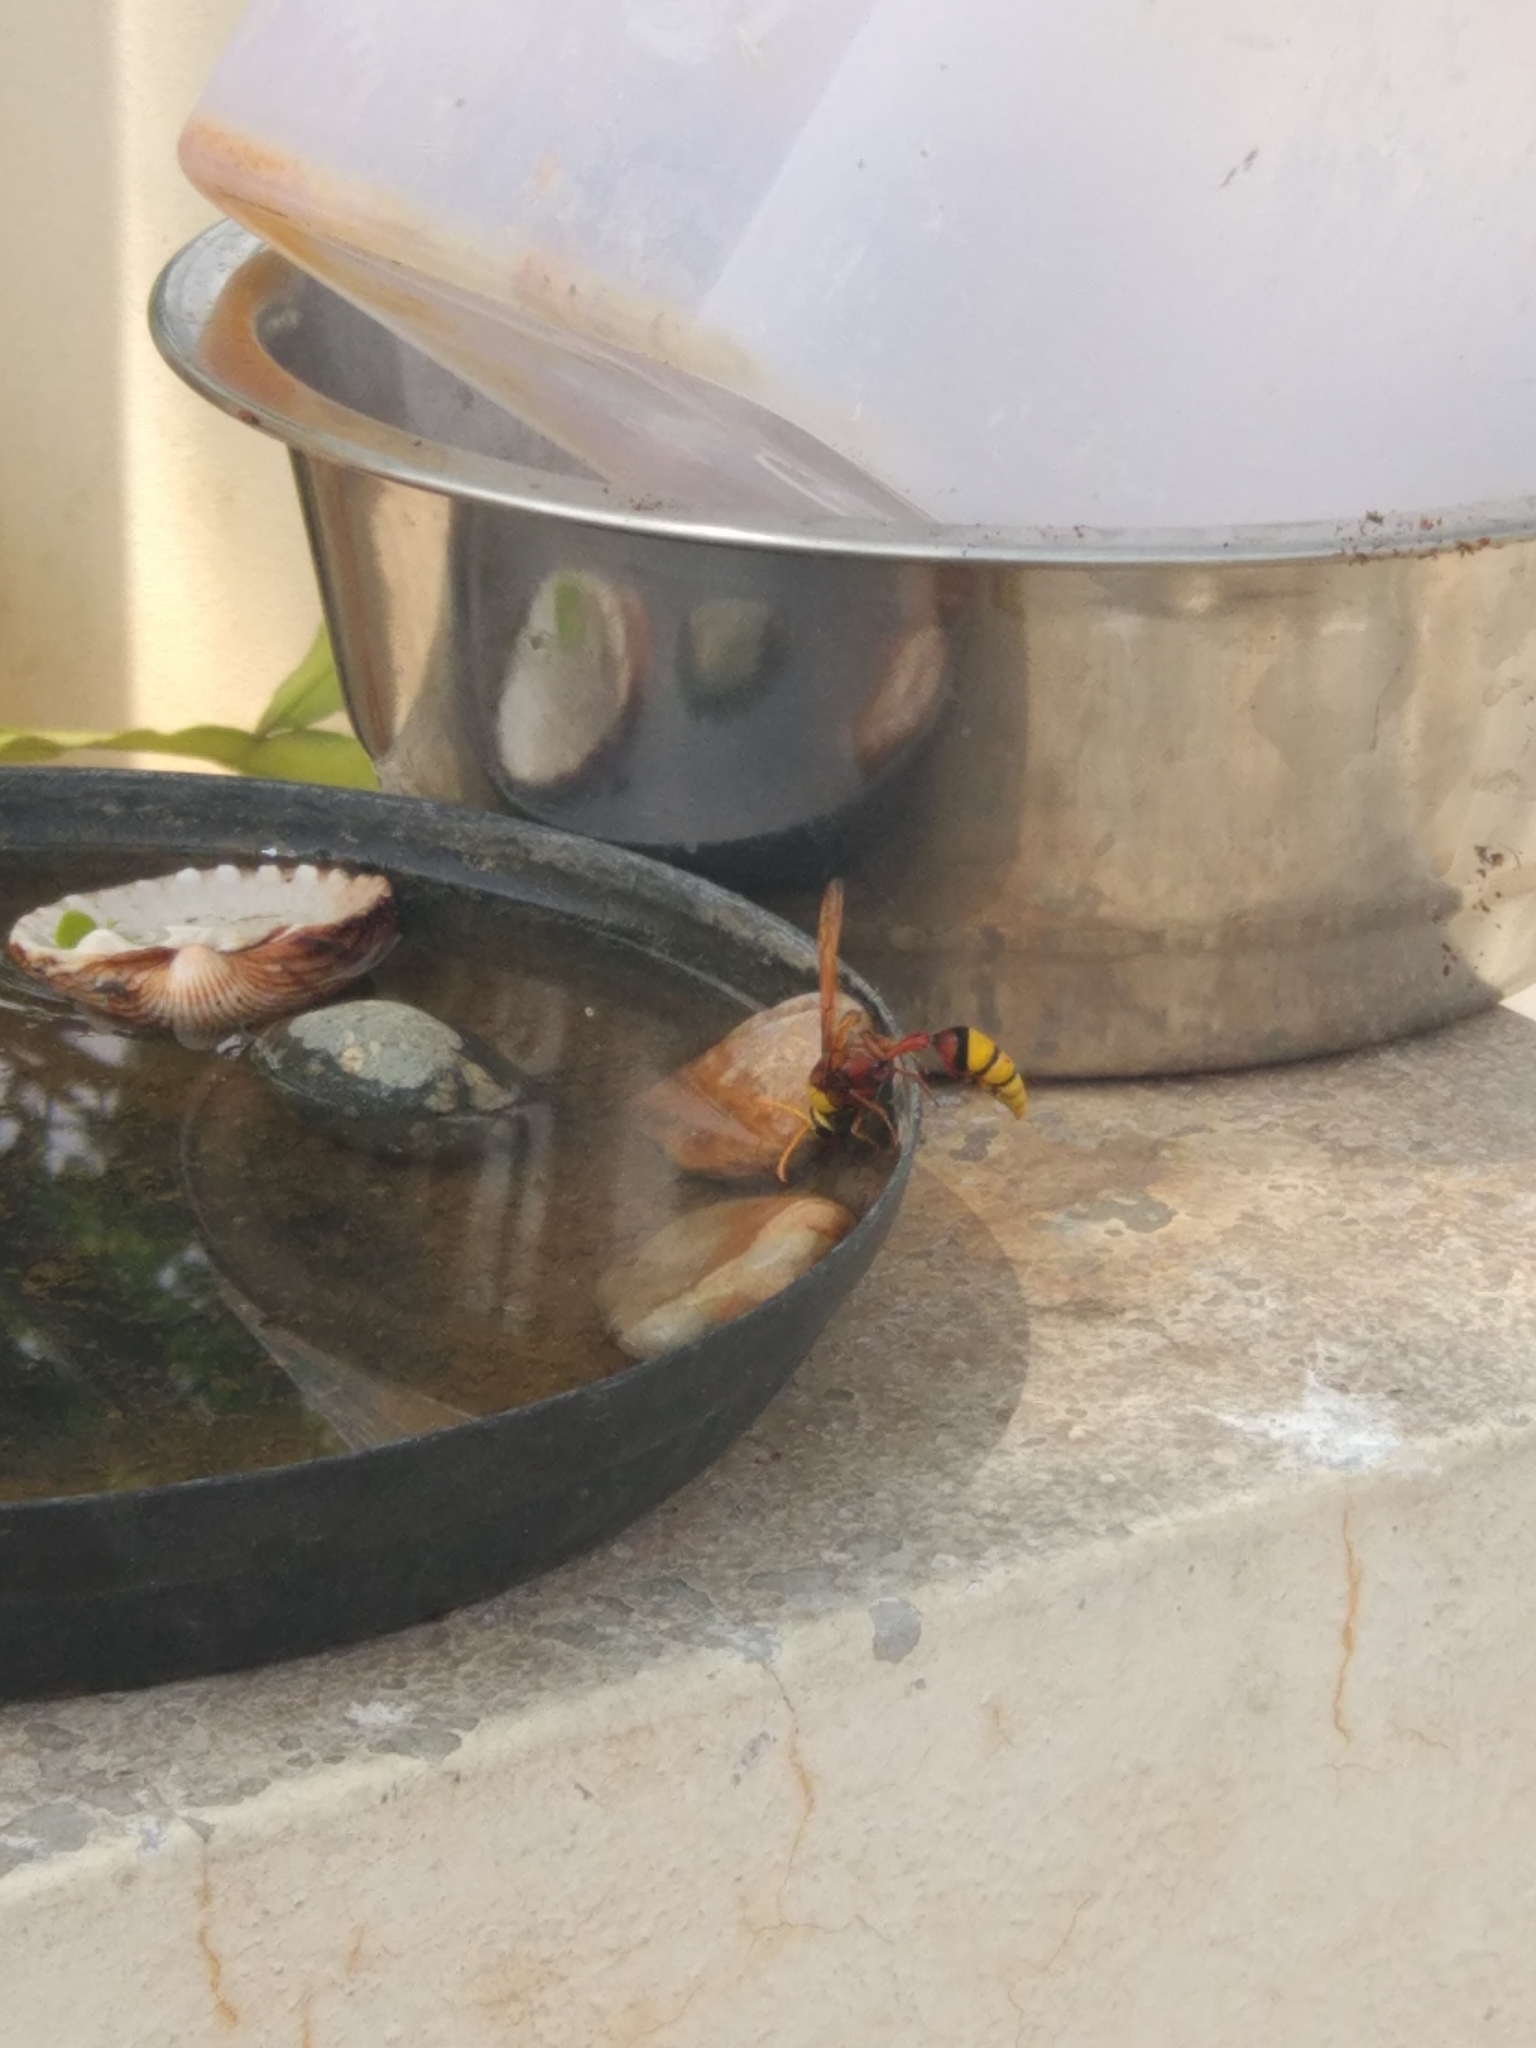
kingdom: Animalia
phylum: Arthropoda
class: Insecta
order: Hymenoptera
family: Eumenidae
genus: Delta
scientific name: Delta pyriforme
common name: Wasp
